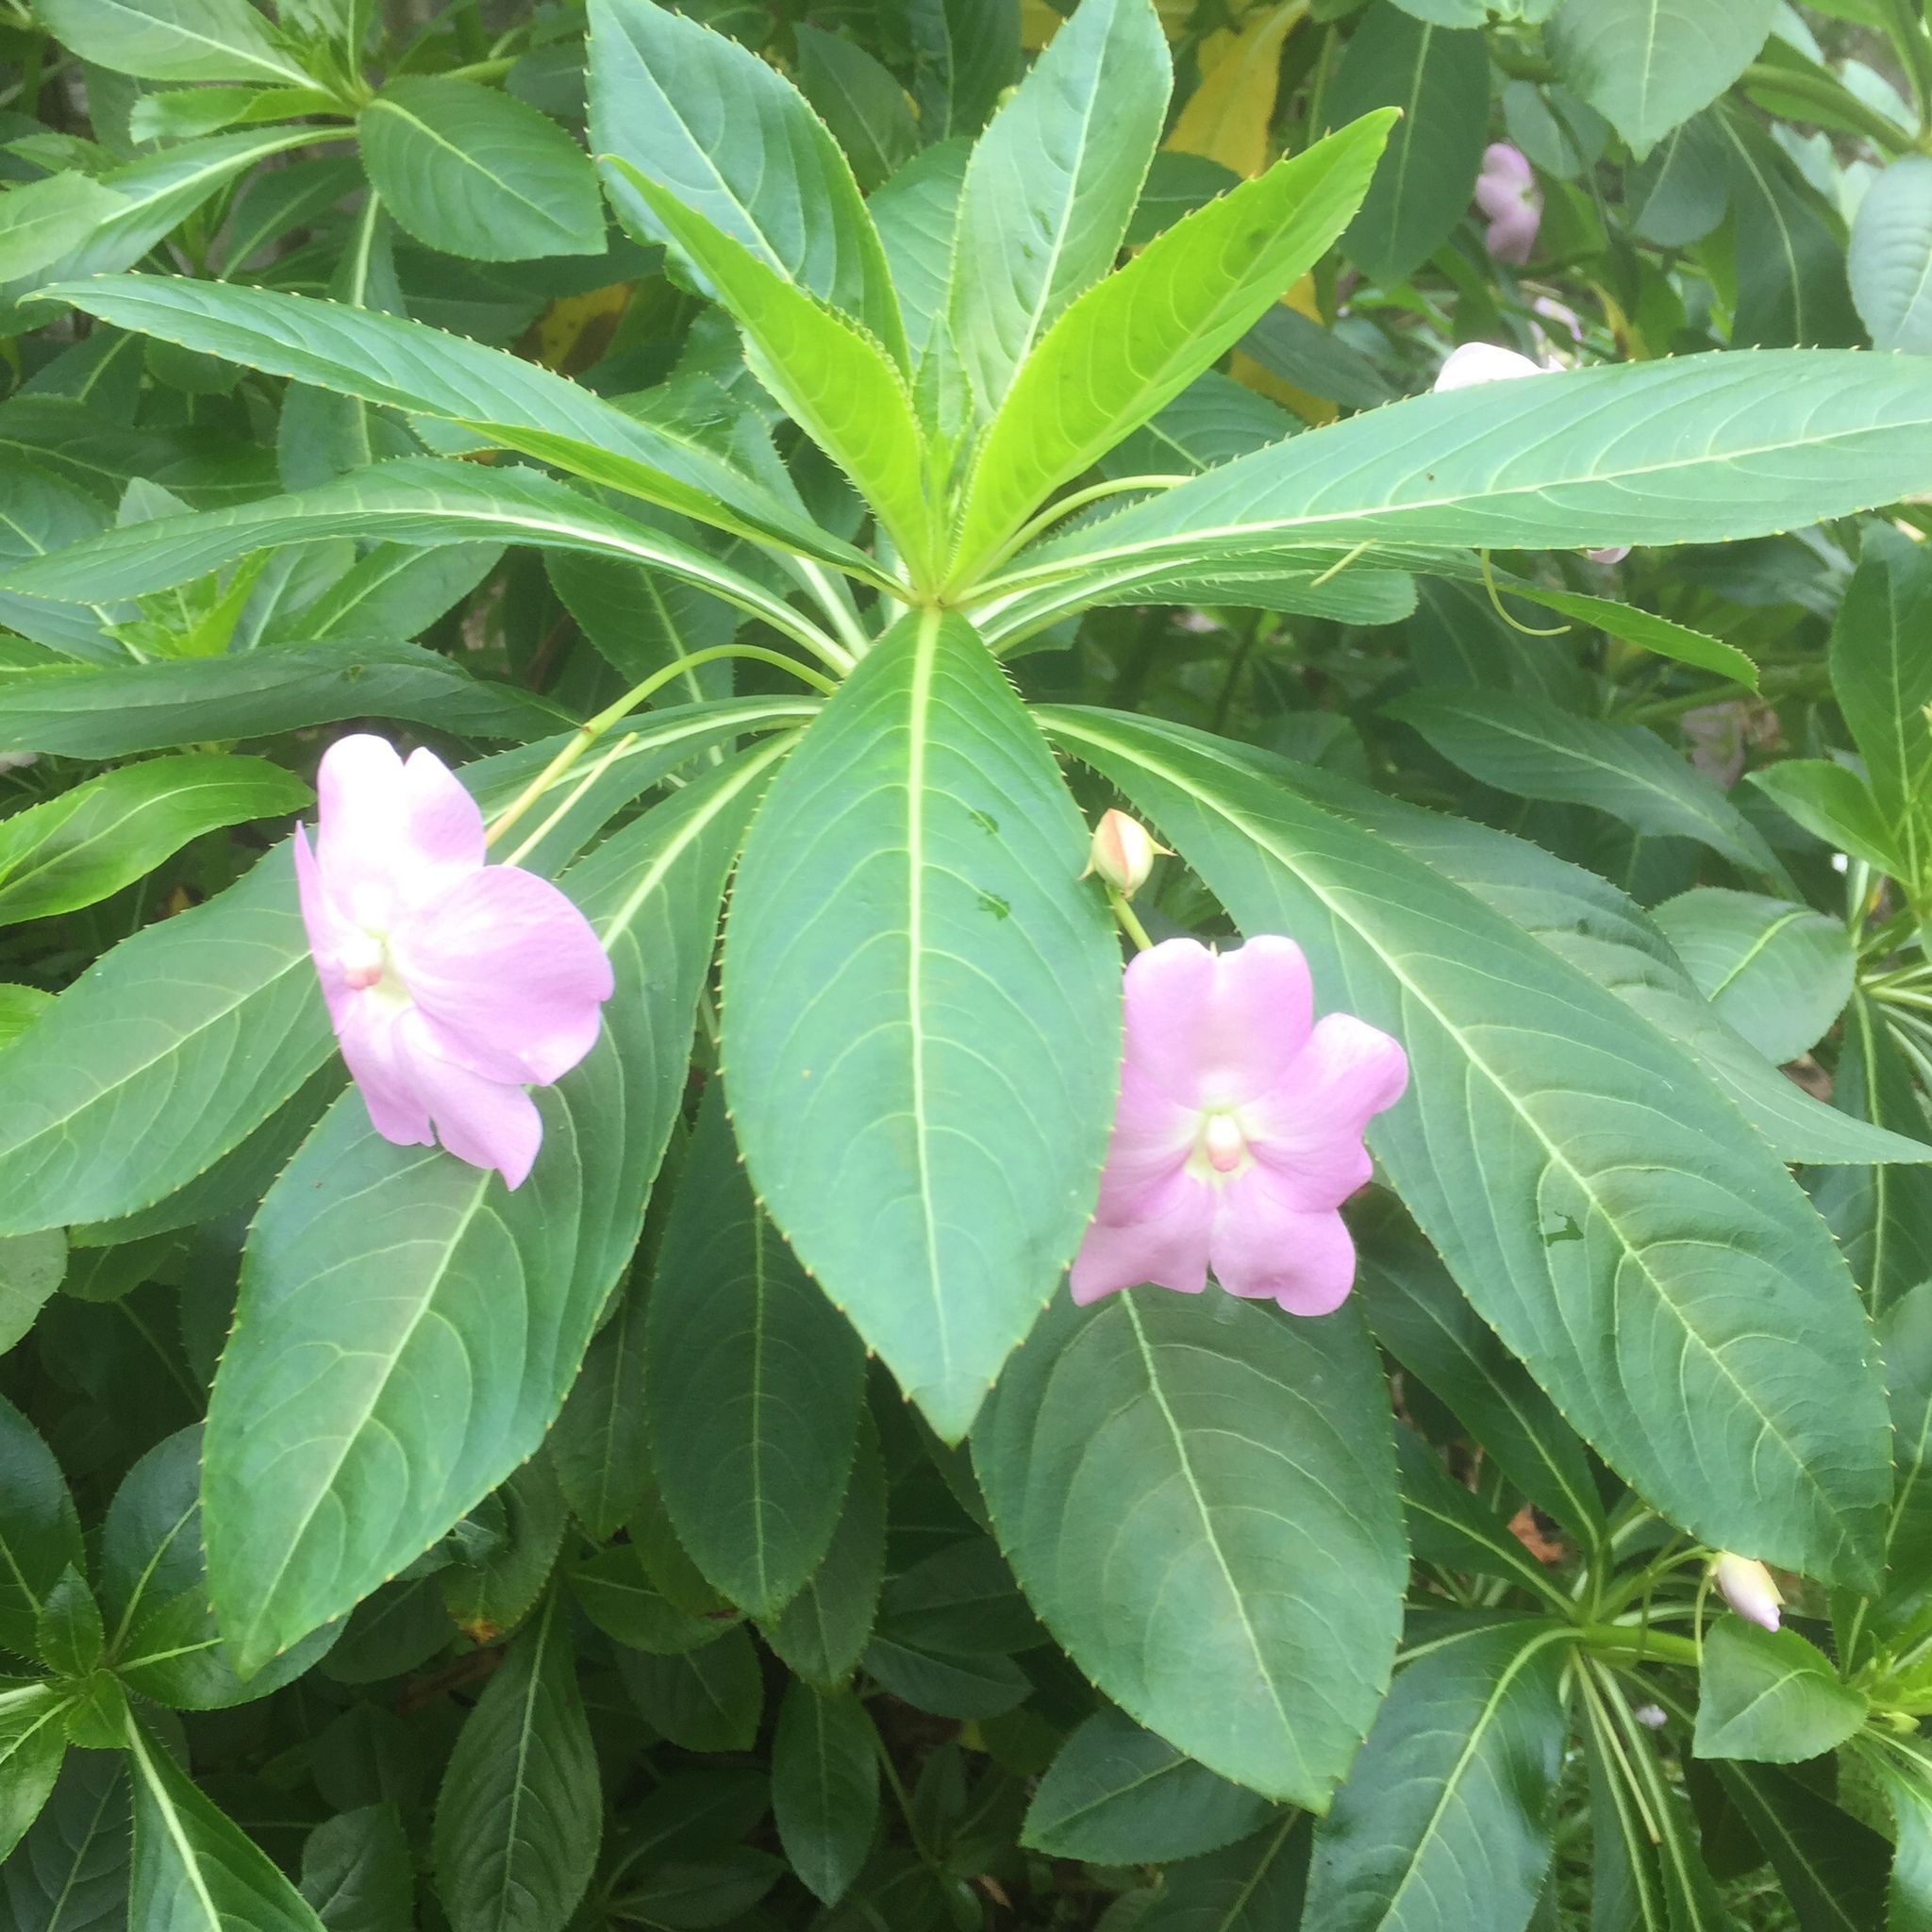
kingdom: Plantae
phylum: Tracheophyta
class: Magnoliopsida
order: Ericales
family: Balsaminaceae
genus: Impatiens
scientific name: Impatiens sodenii
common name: Oliver's touch-me-not
